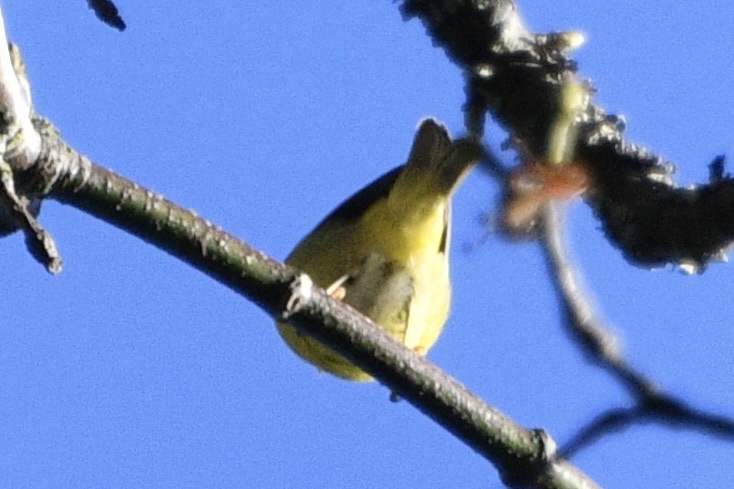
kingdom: Animalia
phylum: Chordata
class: Aves
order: Passeriformes
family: Parulidae
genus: Leiothlypis
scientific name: Leiothlypis ruficapilla
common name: Nashville warbler
